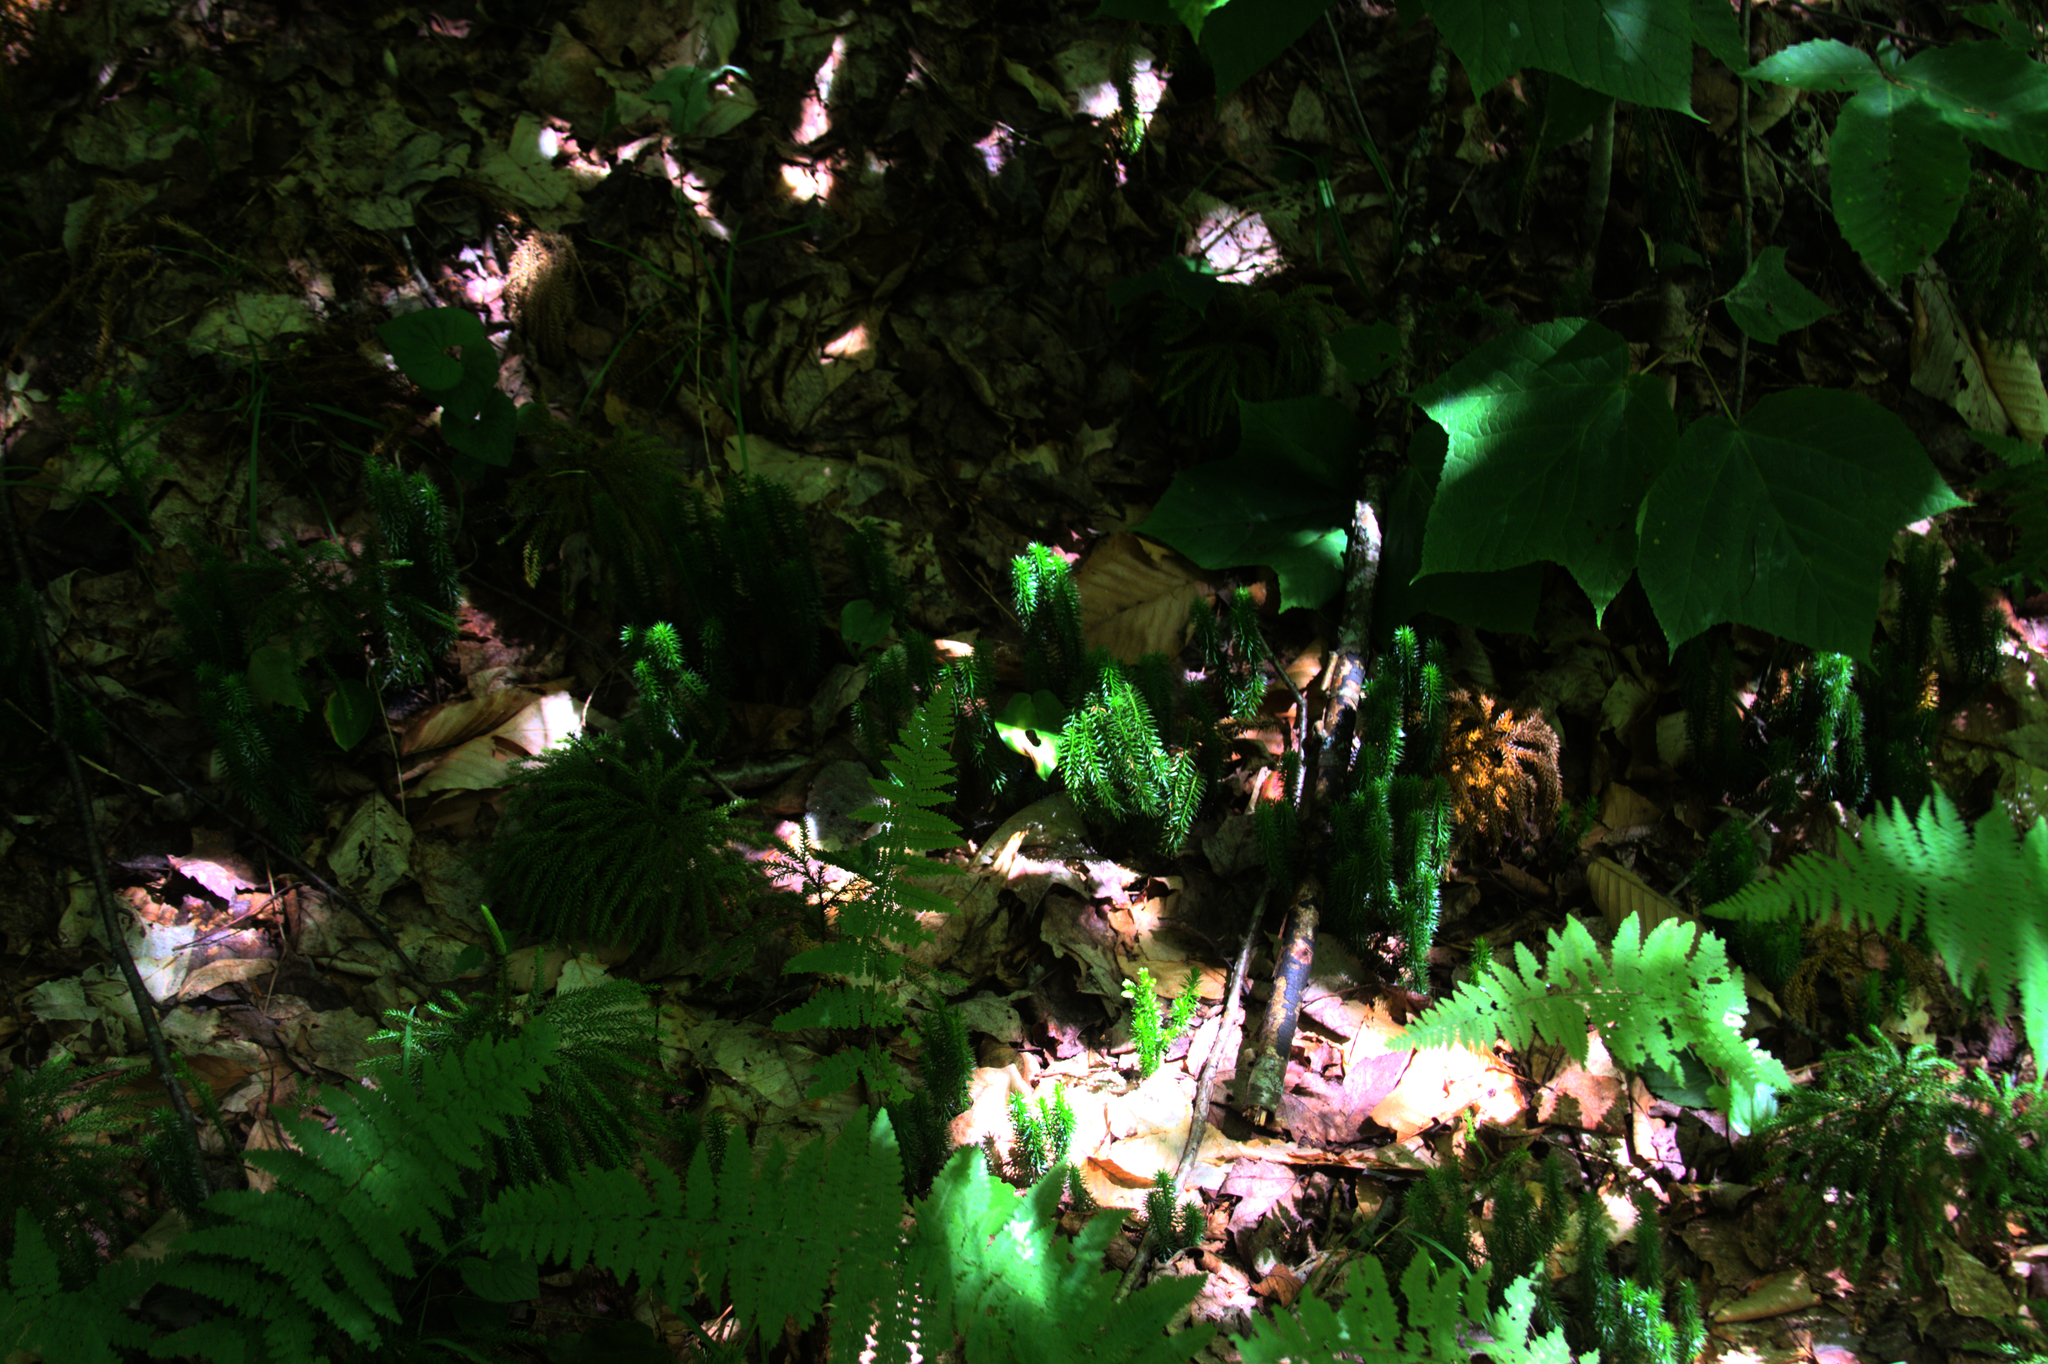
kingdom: Plantae
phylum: Tracheophyta
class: Lycopodiopsida
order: Lycopodiales
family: Lycopodiaceae
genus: Spinulum
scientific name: Spinulum annotinum
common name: Interrupted club-moss
